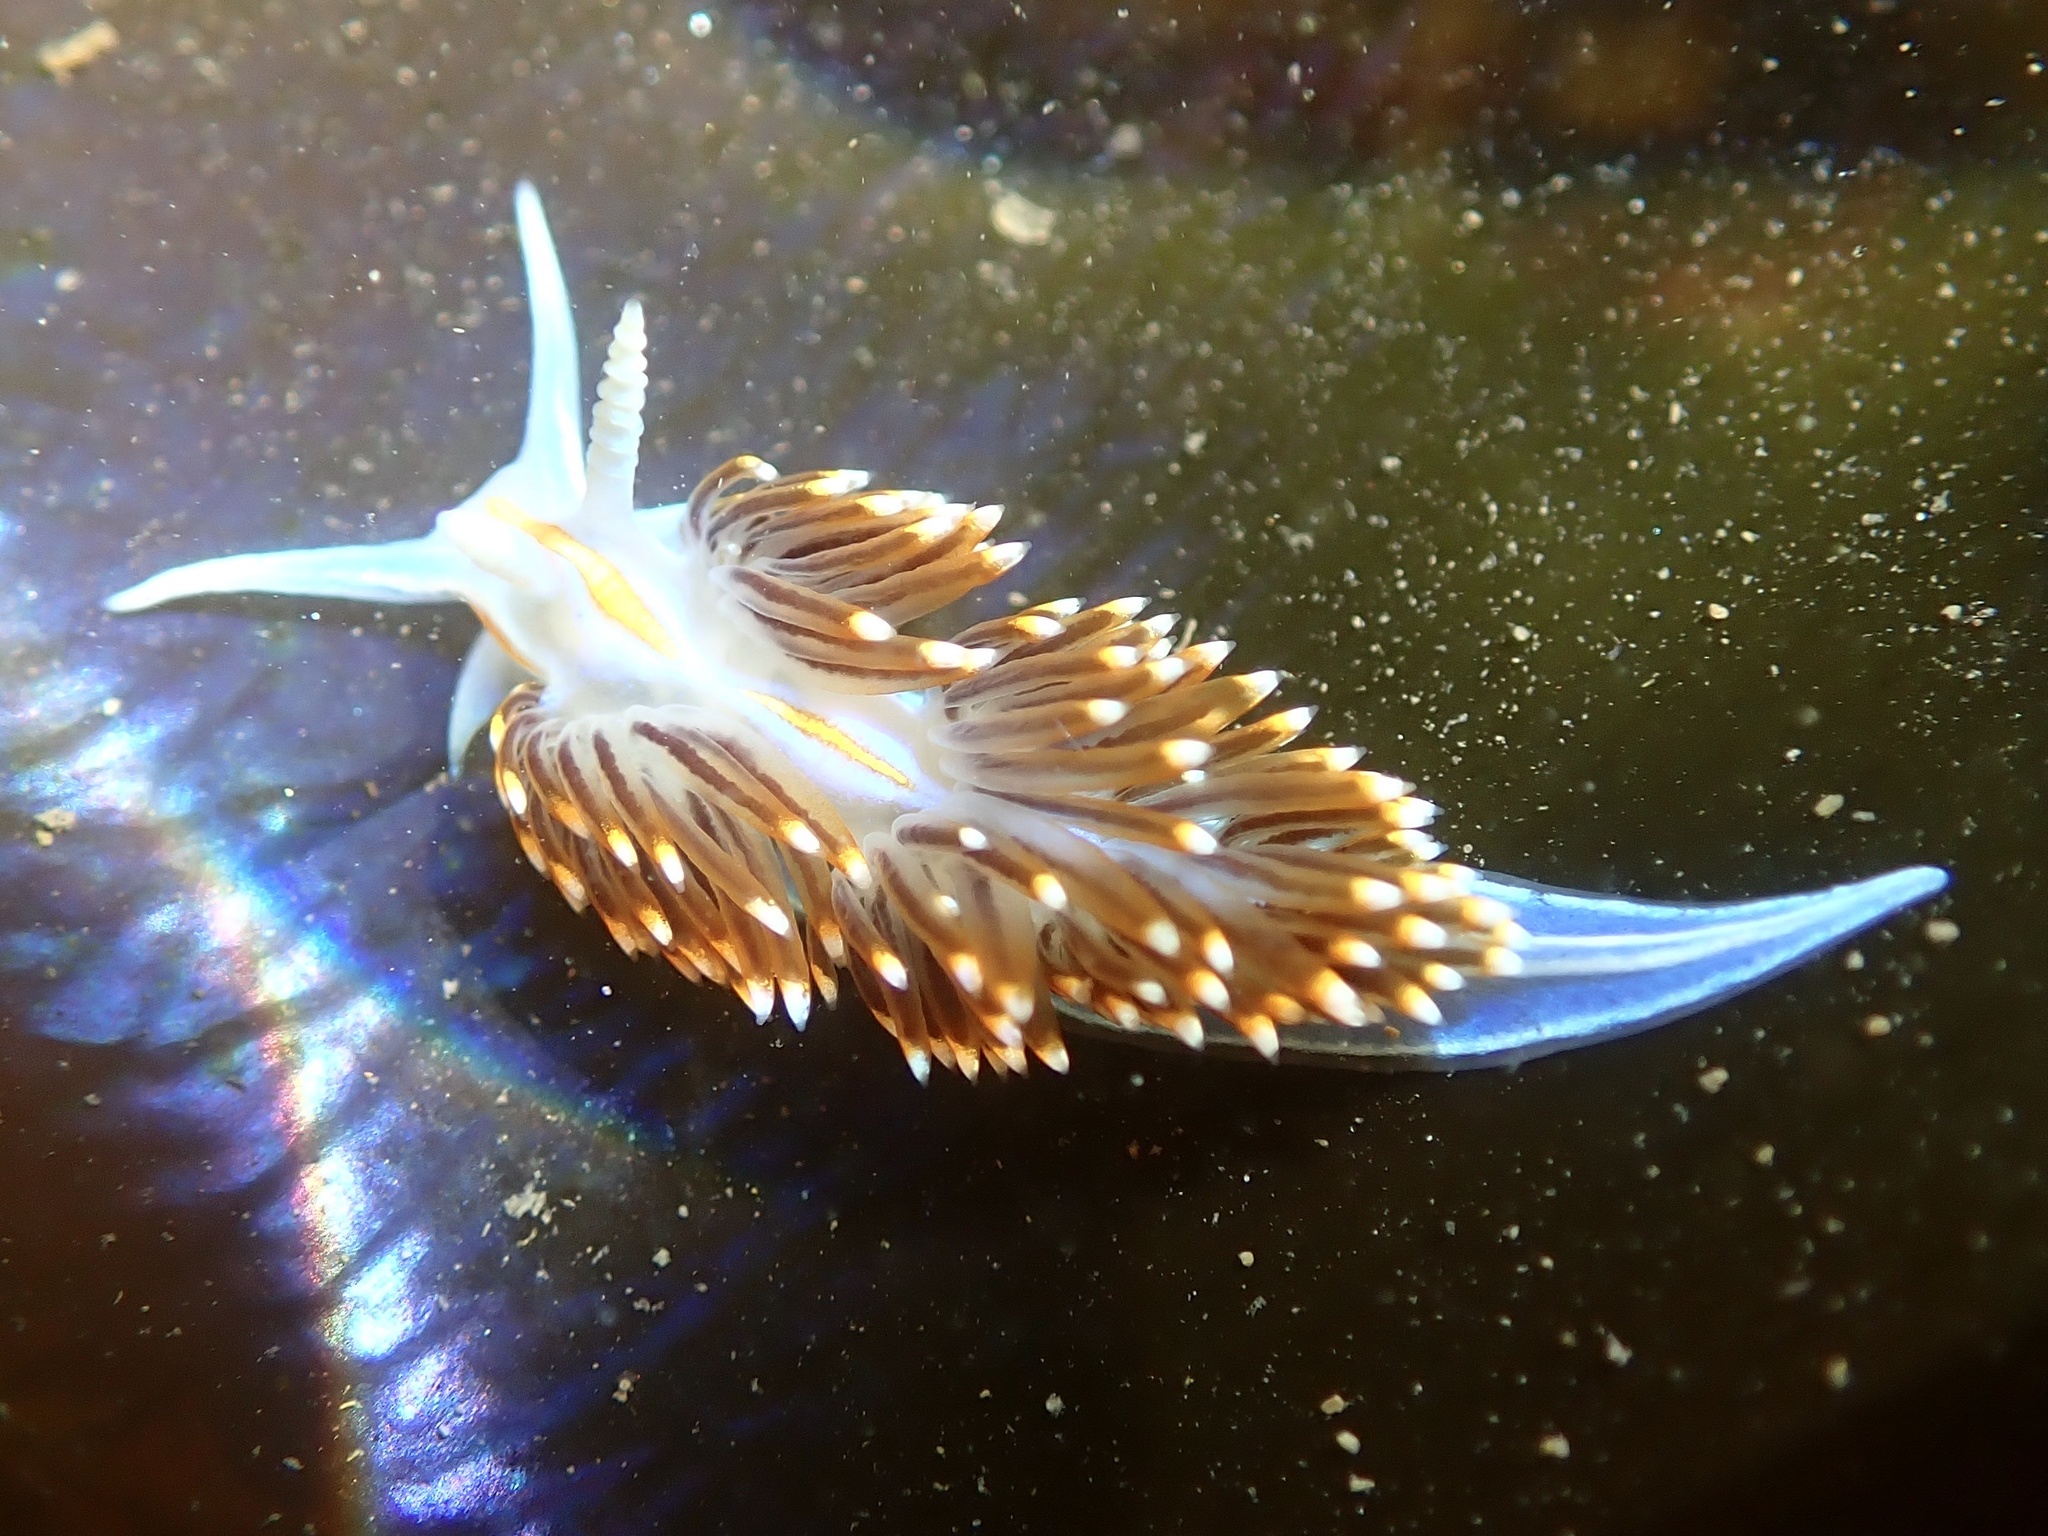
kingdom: Animalia
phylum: Mollusca
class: Gastropoda
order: Nudibranchia
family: Myrrhinidae
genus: Hermissenda
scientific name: Hermissenda opalescens
